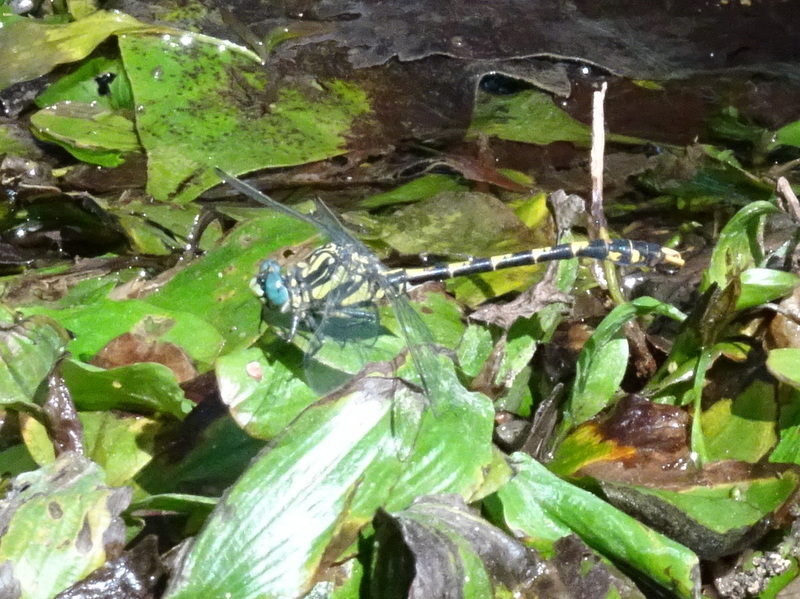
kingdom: Animalia
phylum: Arthropoda
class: Insecta
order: Odonata
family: Gomphidae
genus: Onychogomphus
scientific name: Onychogomphus uncatus
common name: Large pincertail
